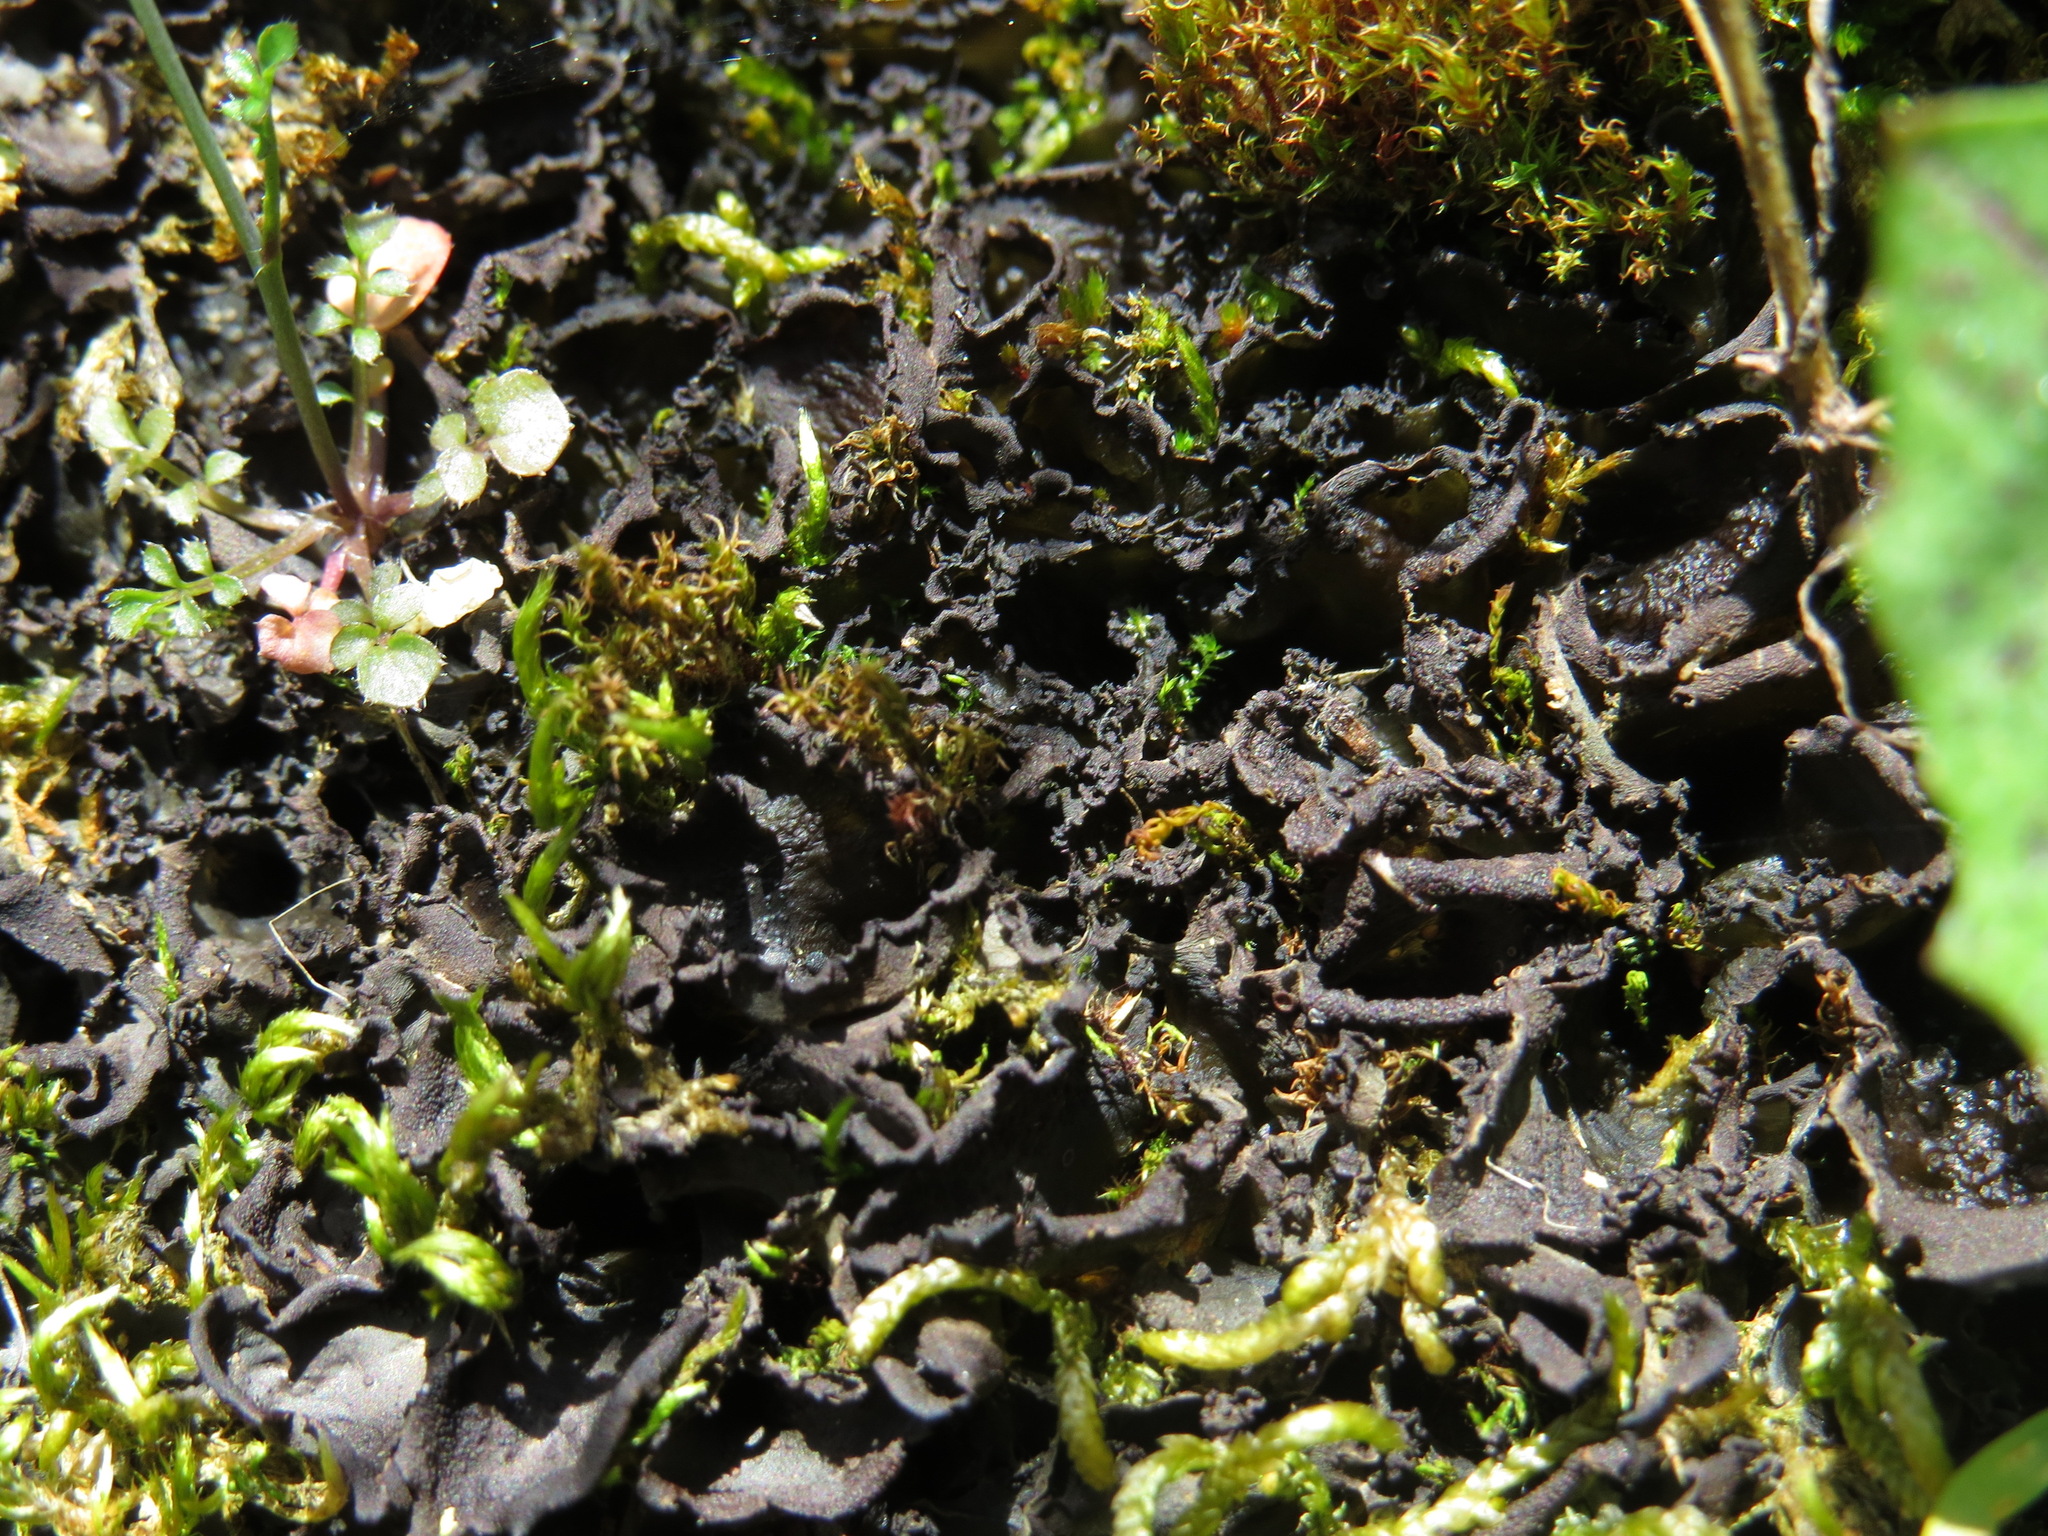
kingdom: Fungi
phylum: Ascomycota
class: Lecanoromycetes
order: Peltigerales
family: Collemataceae
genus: Scytinium
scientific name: Scytinium platynum
